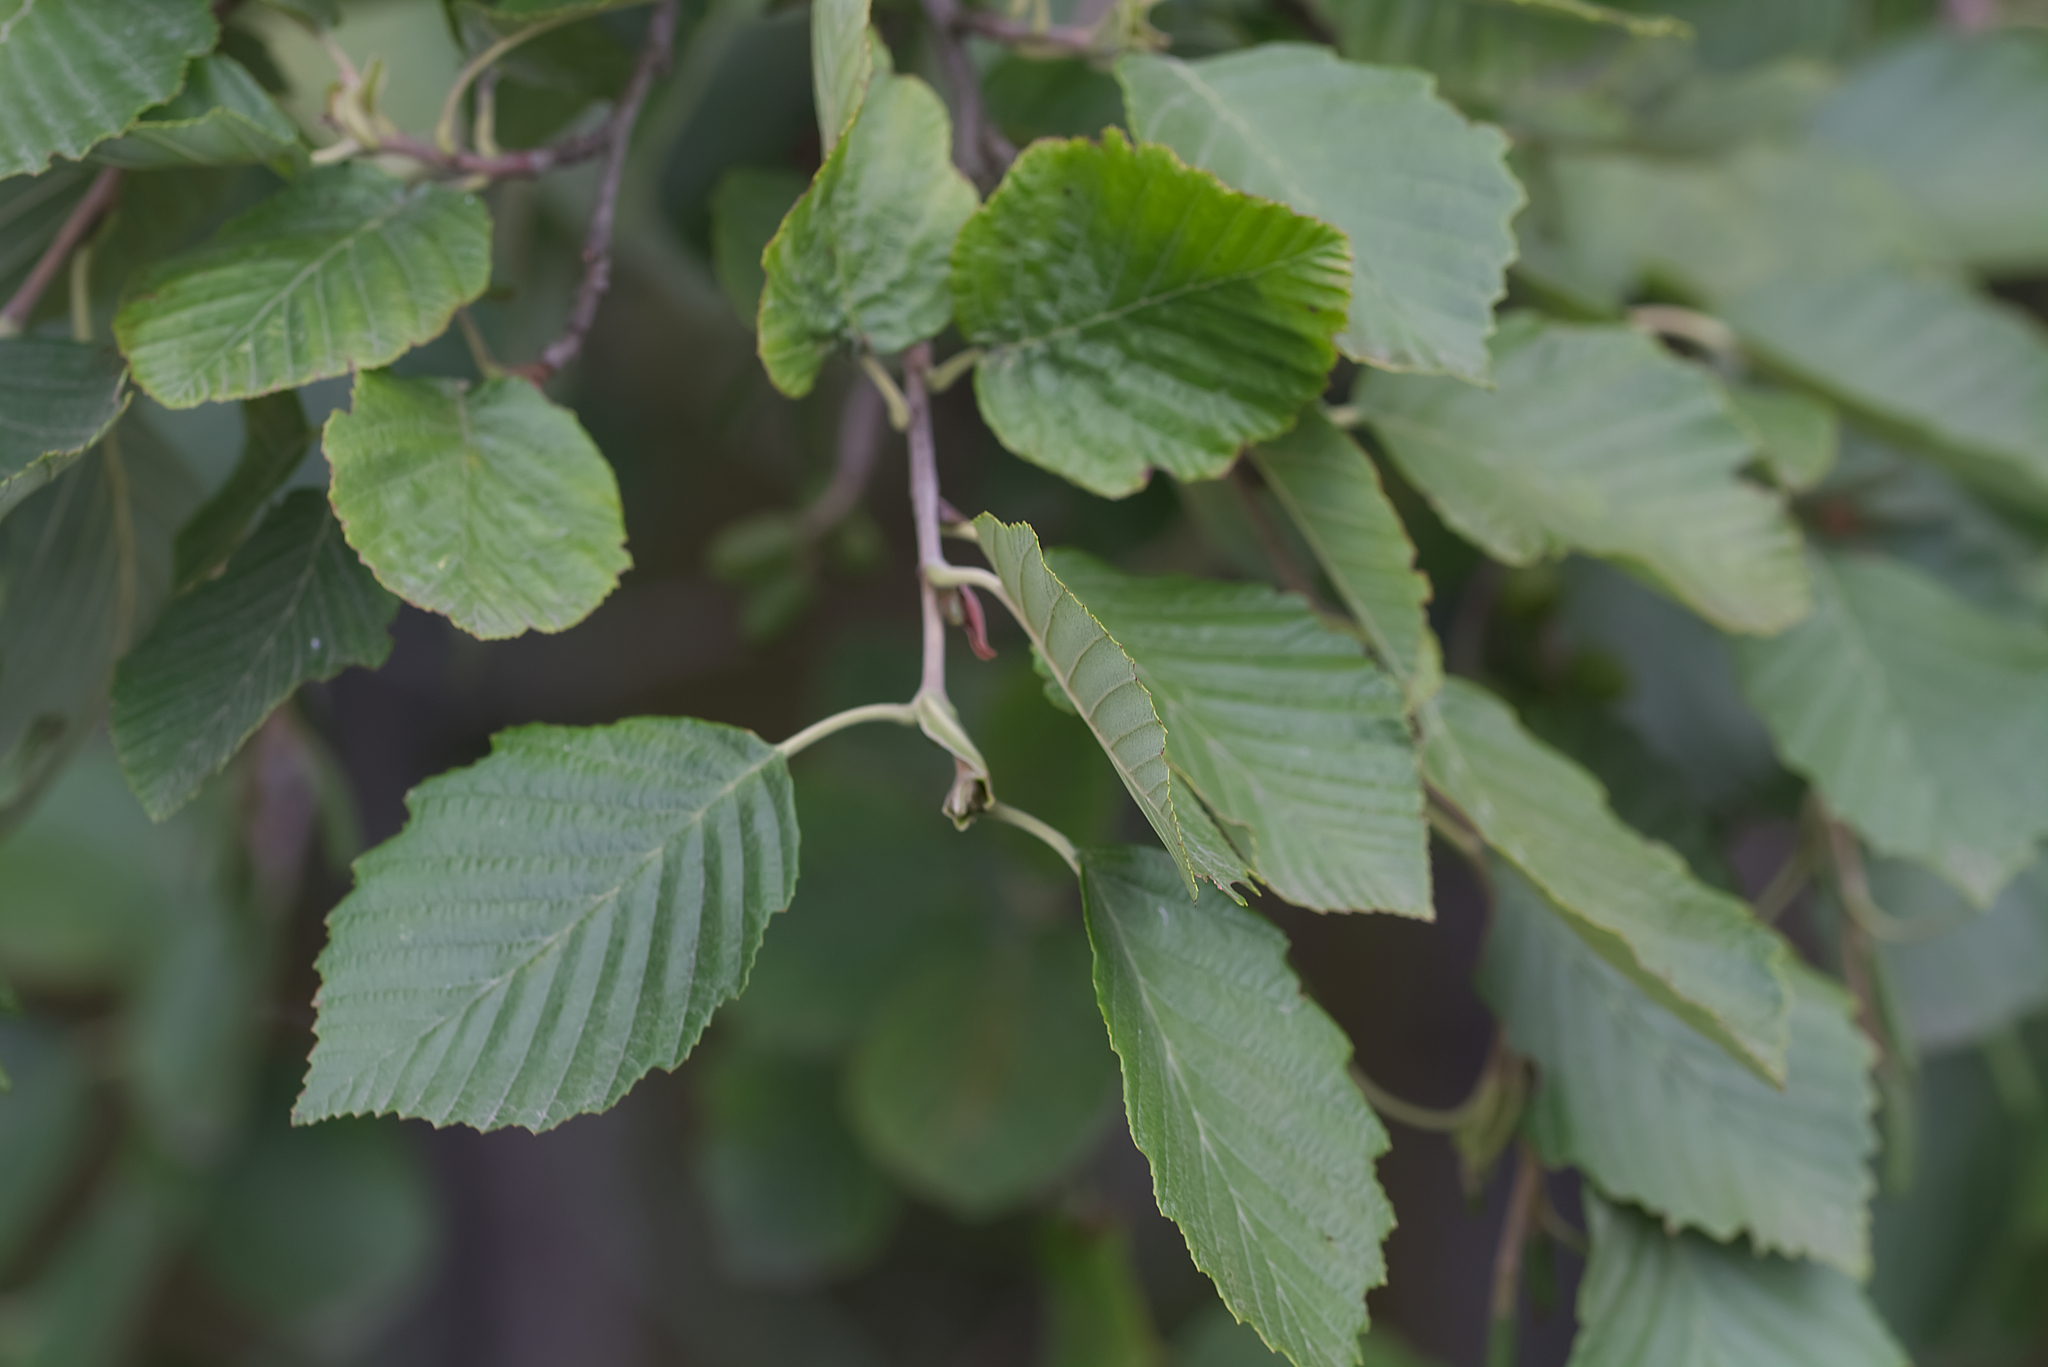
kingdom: Plantae
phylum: Tracheophyta
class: Magnoliopsida
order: Fagales
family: Betulaceae
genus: Alnus
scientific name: Alnus incana
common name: Grey alder
